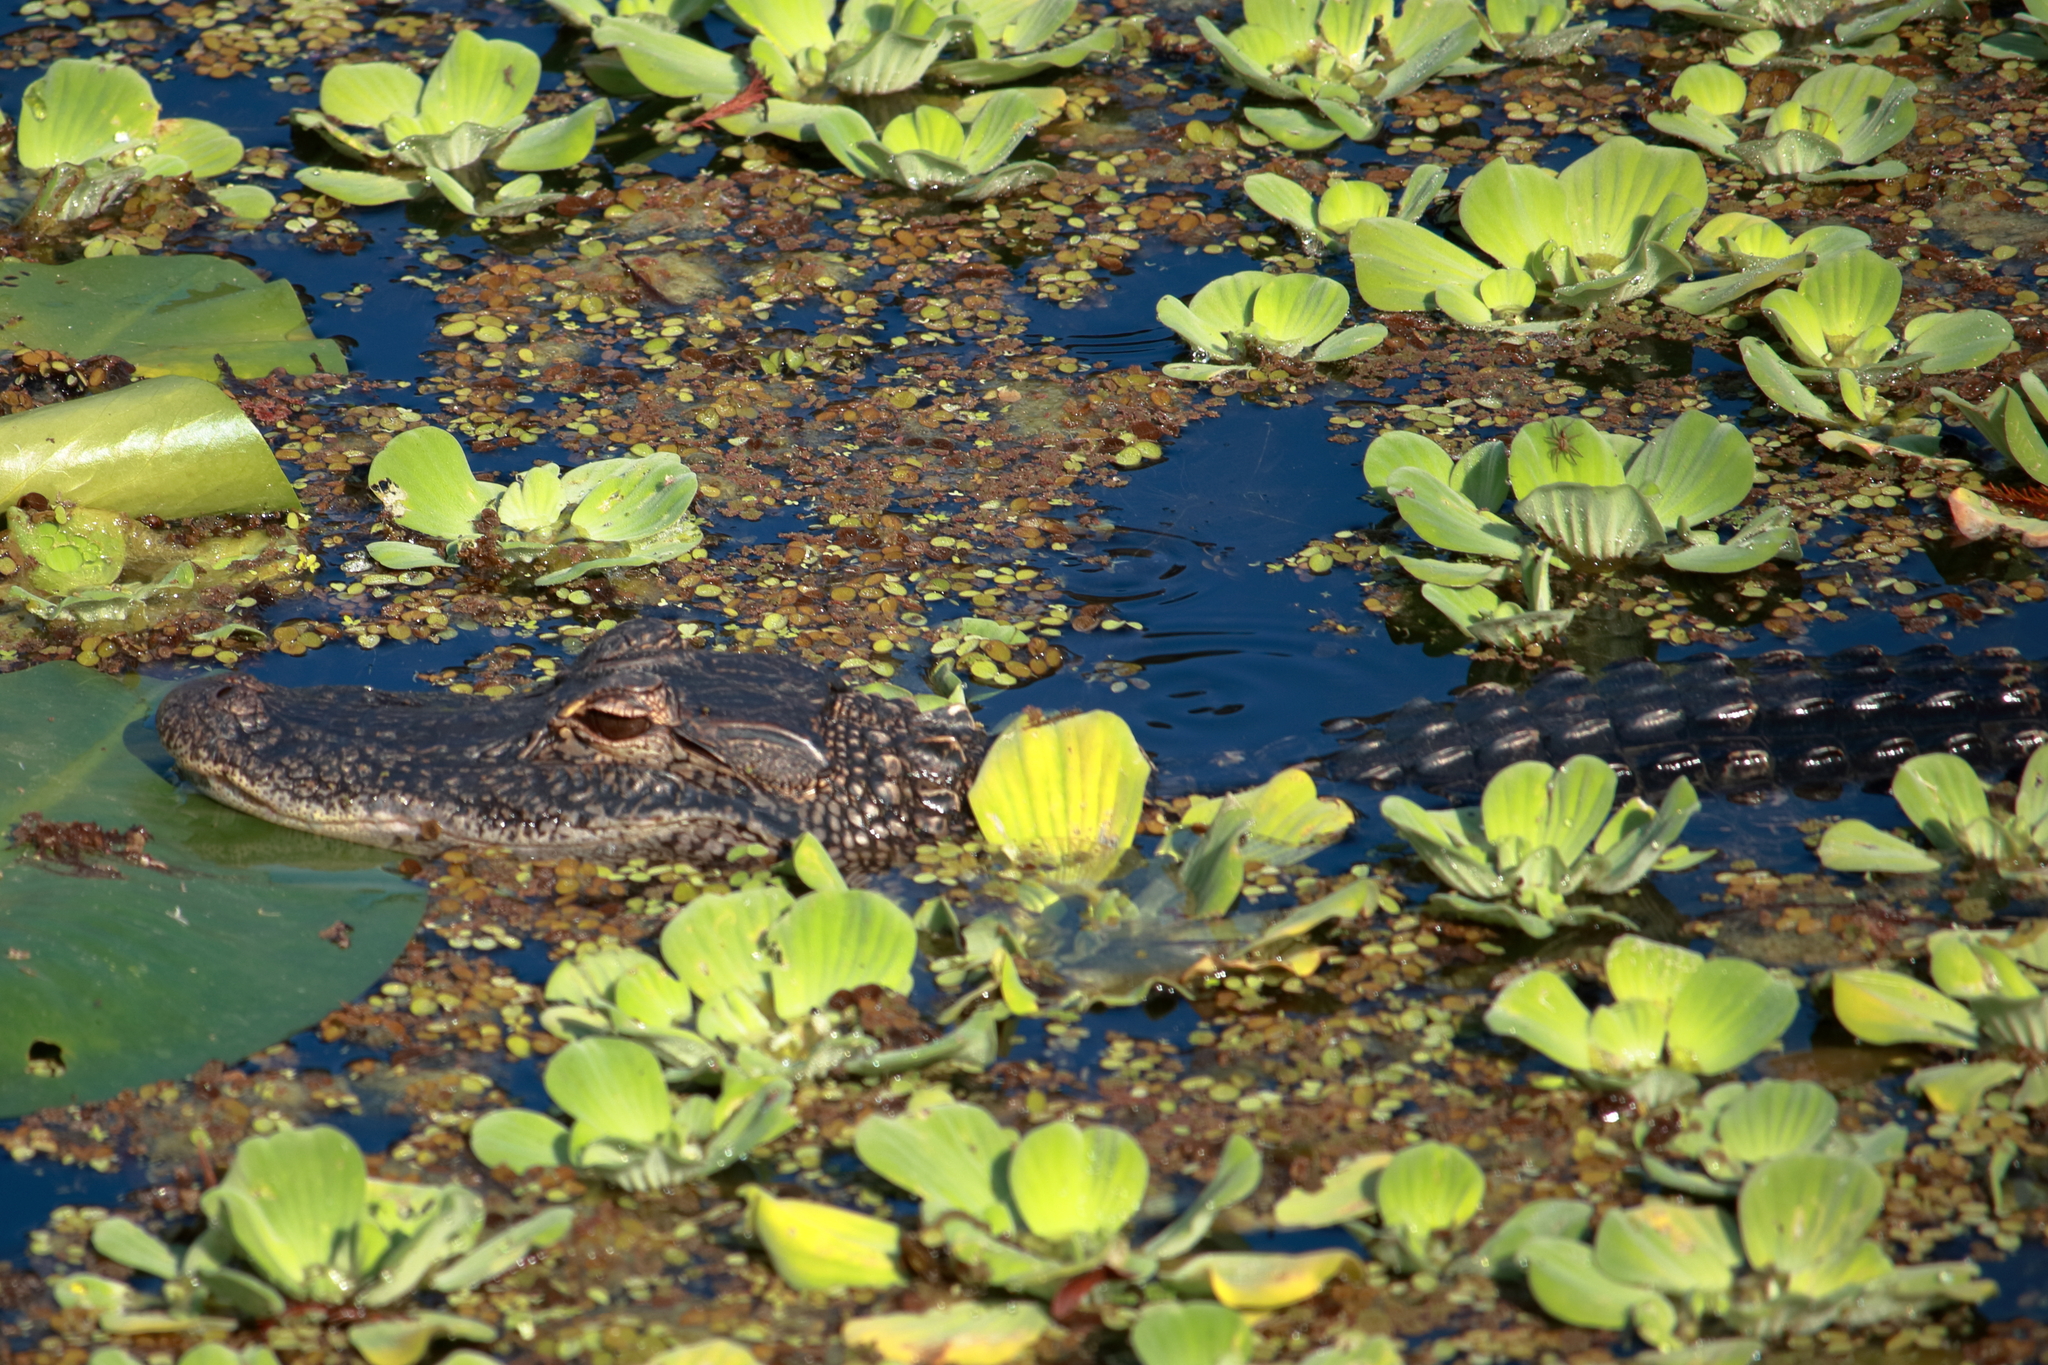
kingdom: Animalia
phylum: Chordata
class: Crocodylia
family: Alligatoridae
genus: Alligator
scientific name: Alligator mississippiensis
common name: American alligator
